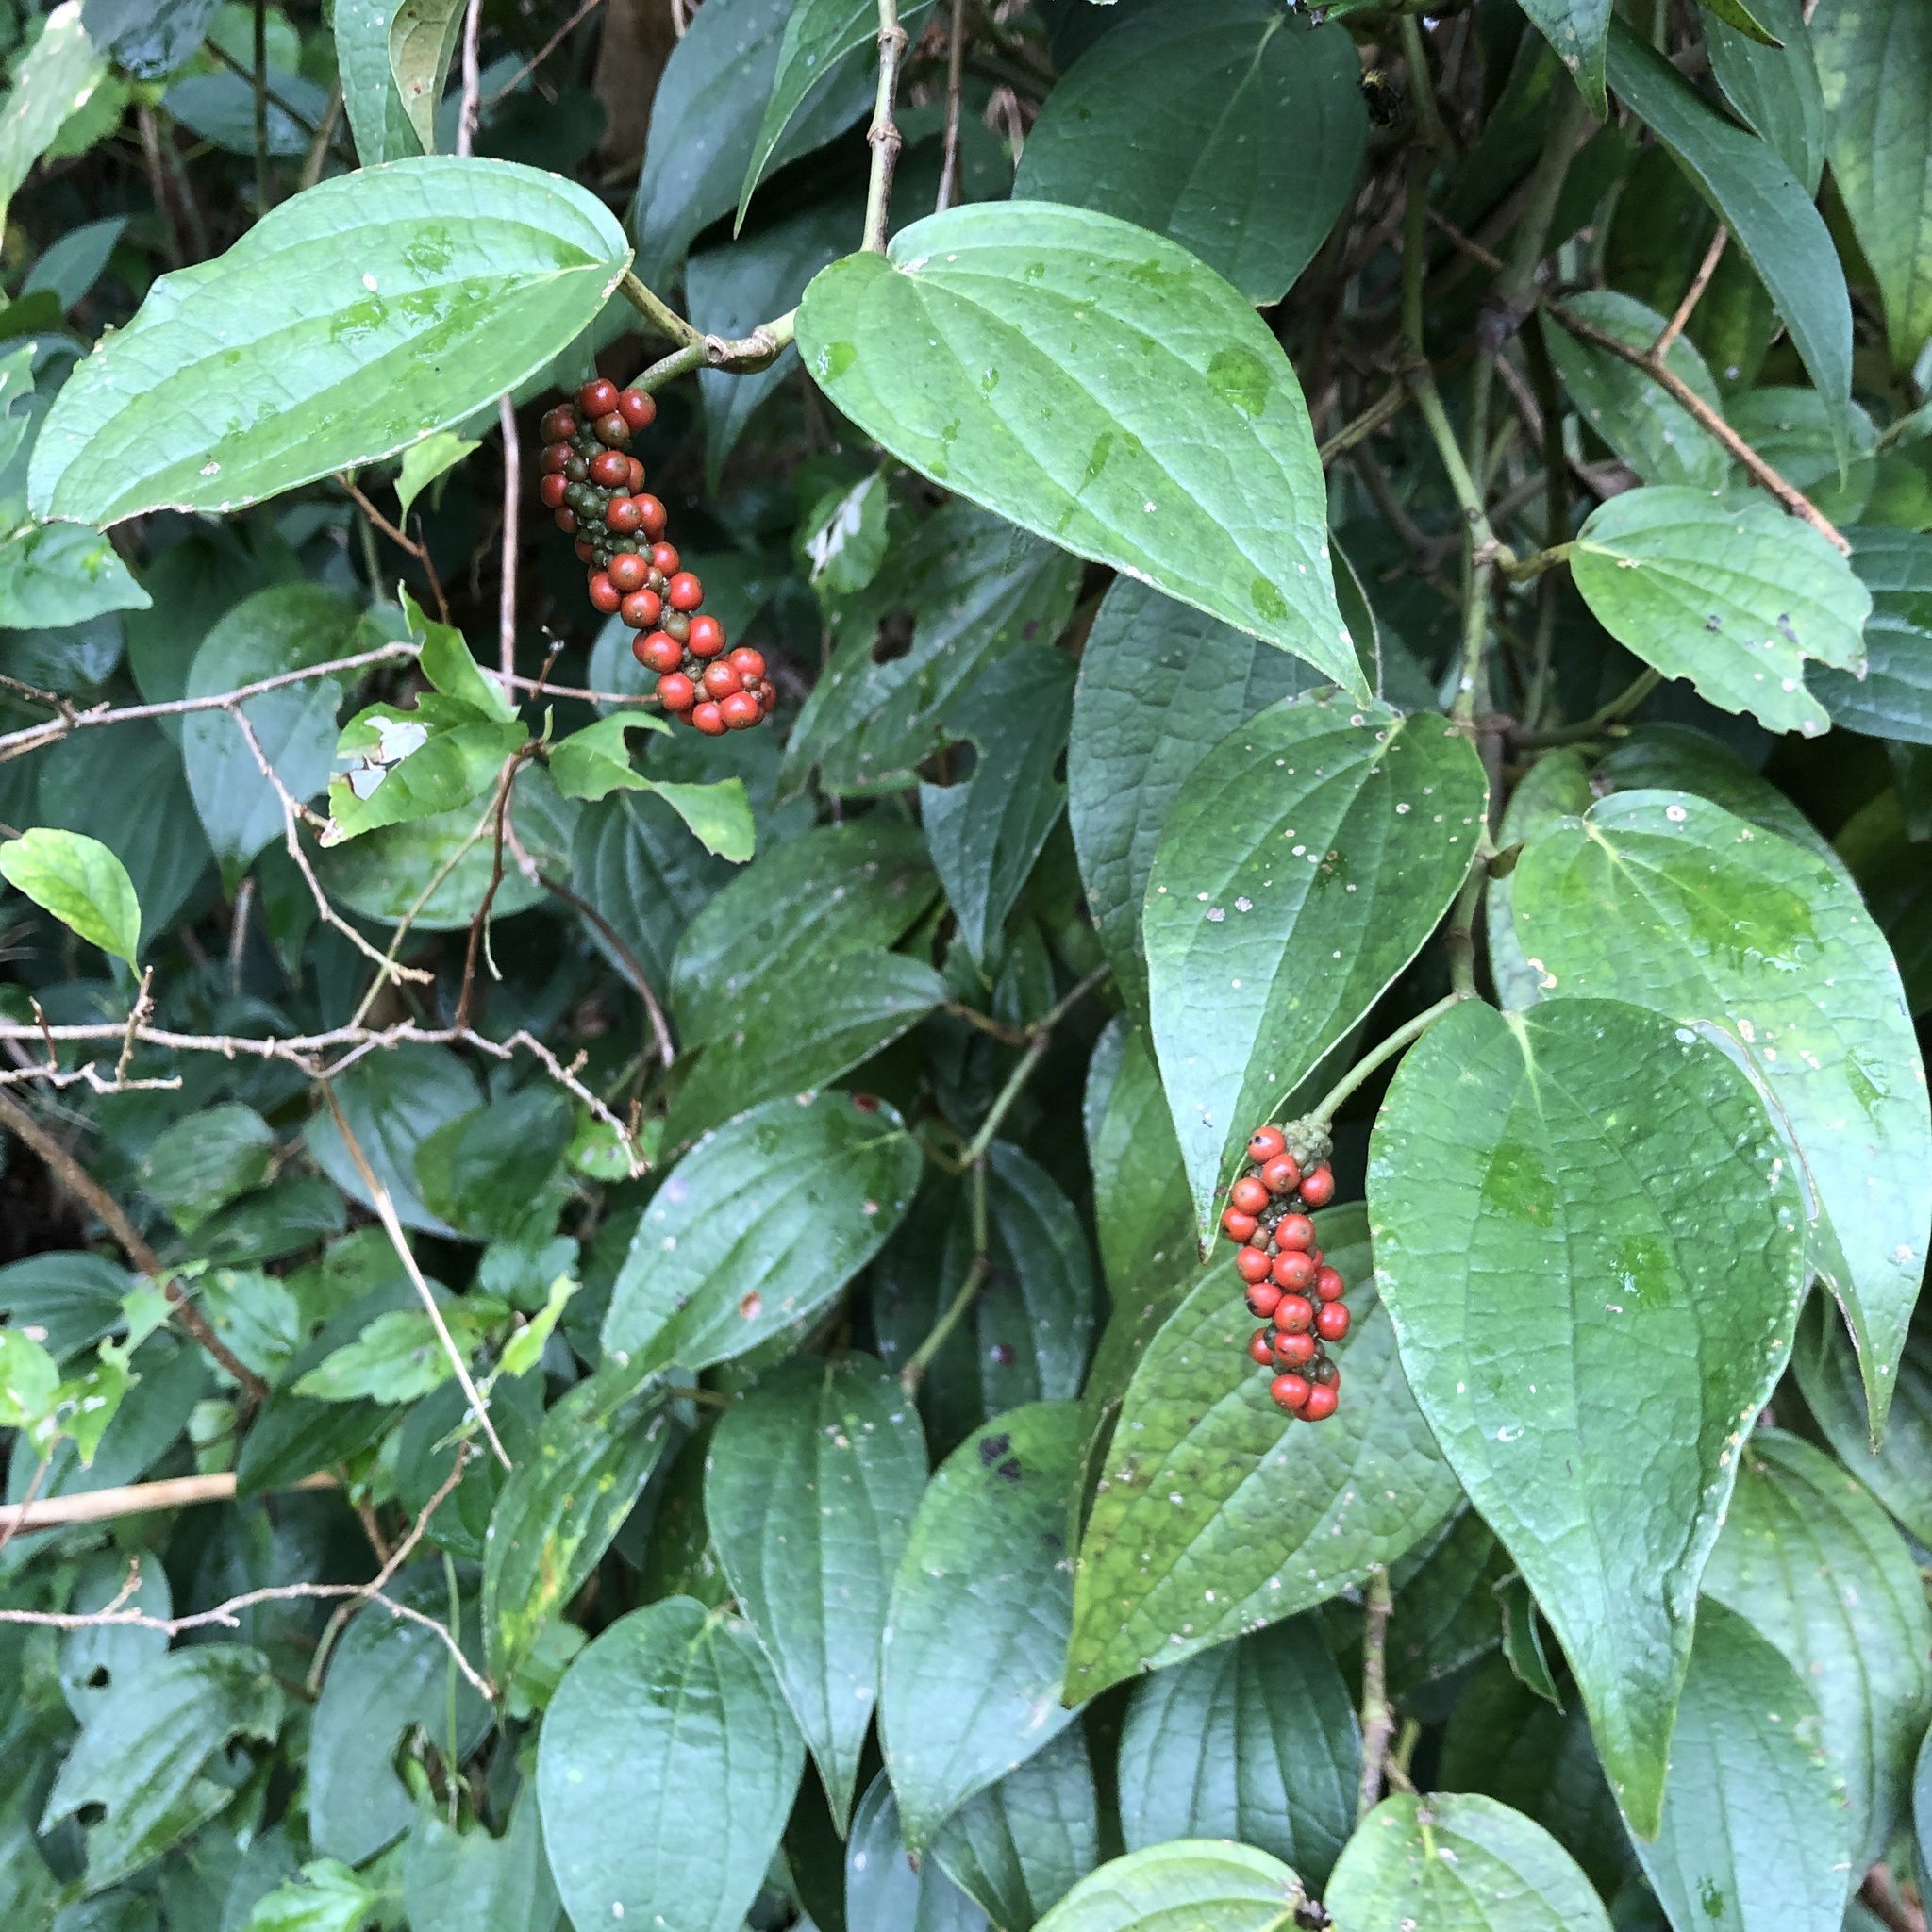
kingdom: Plantae
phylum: Tracheophyta
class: Magnoliopsida
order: Piperales
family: Piperaceae
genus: Piper
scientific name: Piper kadsura
